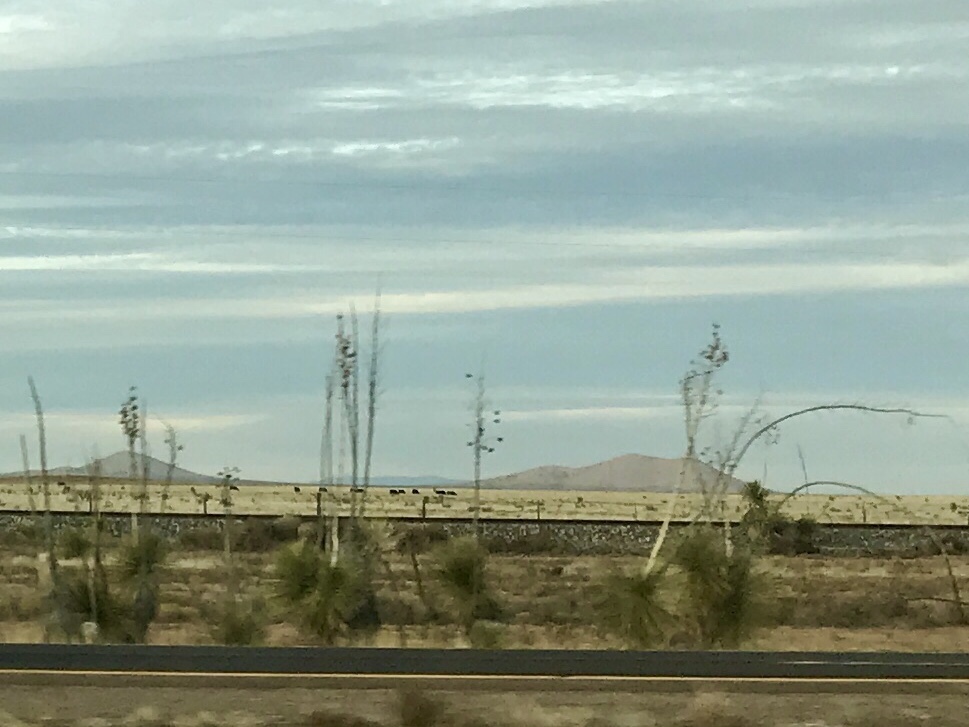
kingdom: Plantae
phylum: Tracheophyta
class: Liliopsida
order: Asparagales
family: Asparagaceae
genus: Yucca
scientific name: Yucca elata
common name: Palmella
